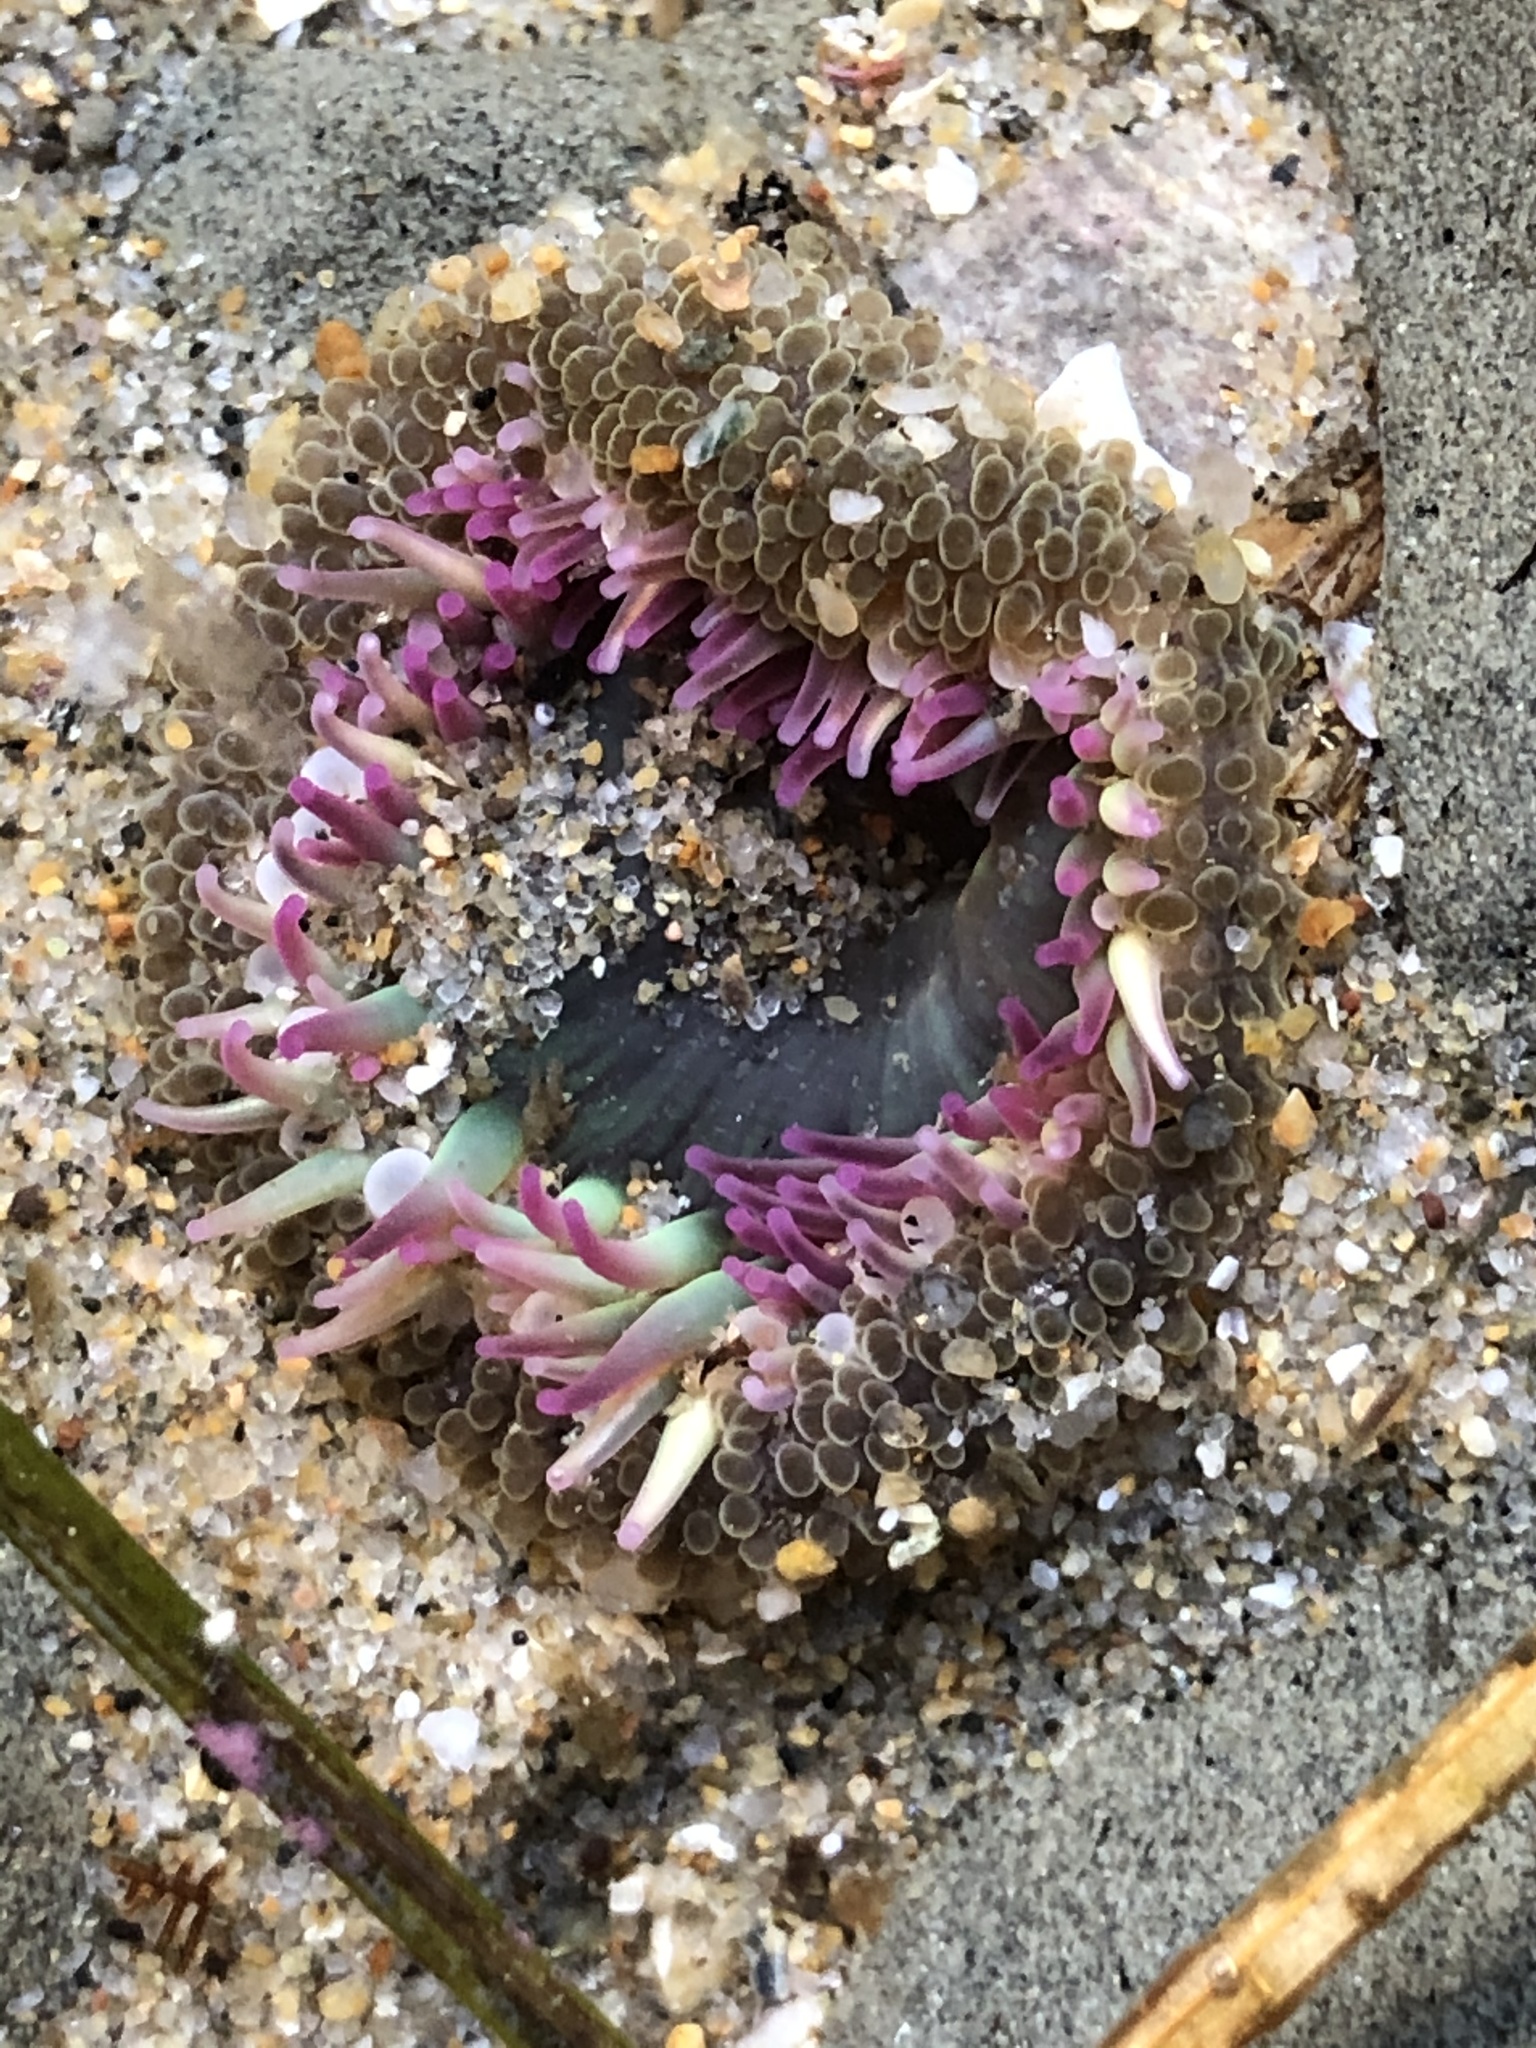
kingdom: Animalia
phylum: Cnidaria
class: Anthozoa
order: Actiniaria
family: Actiniidae
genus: Anthopleura
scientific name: Anthopleura elegantissima
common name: Clonal anemone
